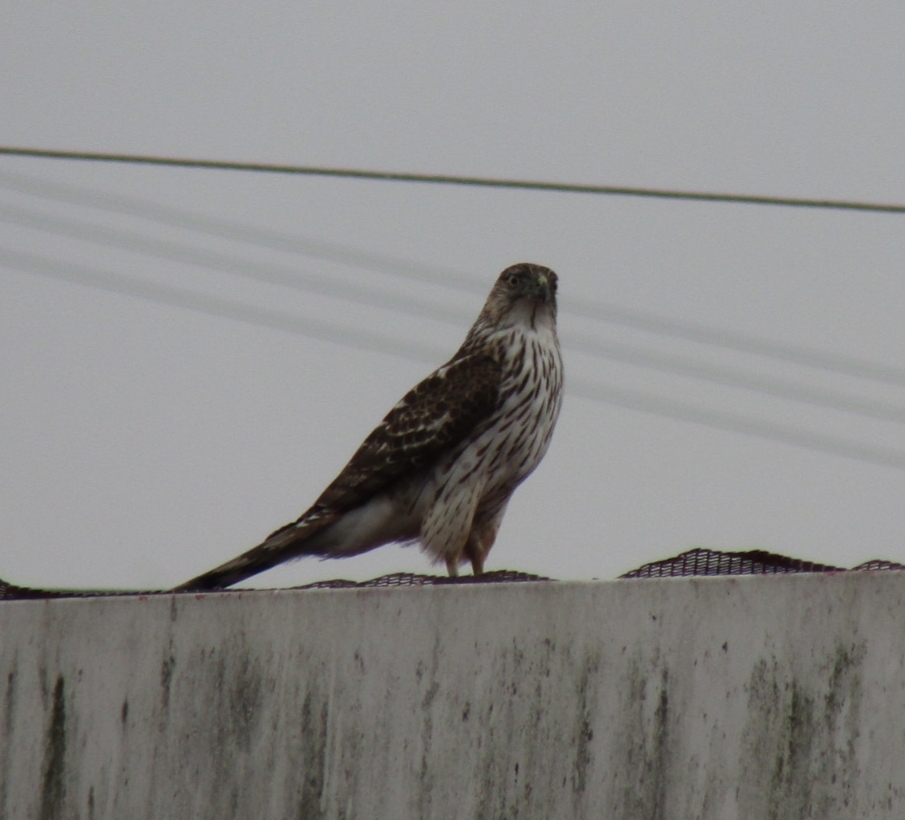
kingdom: Animalia
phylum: Chordata
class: Aves
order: Accipitriformes
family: Accipitridae
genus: Accipiter
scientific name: Accipiter cooperii
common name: Cooper's hawk
